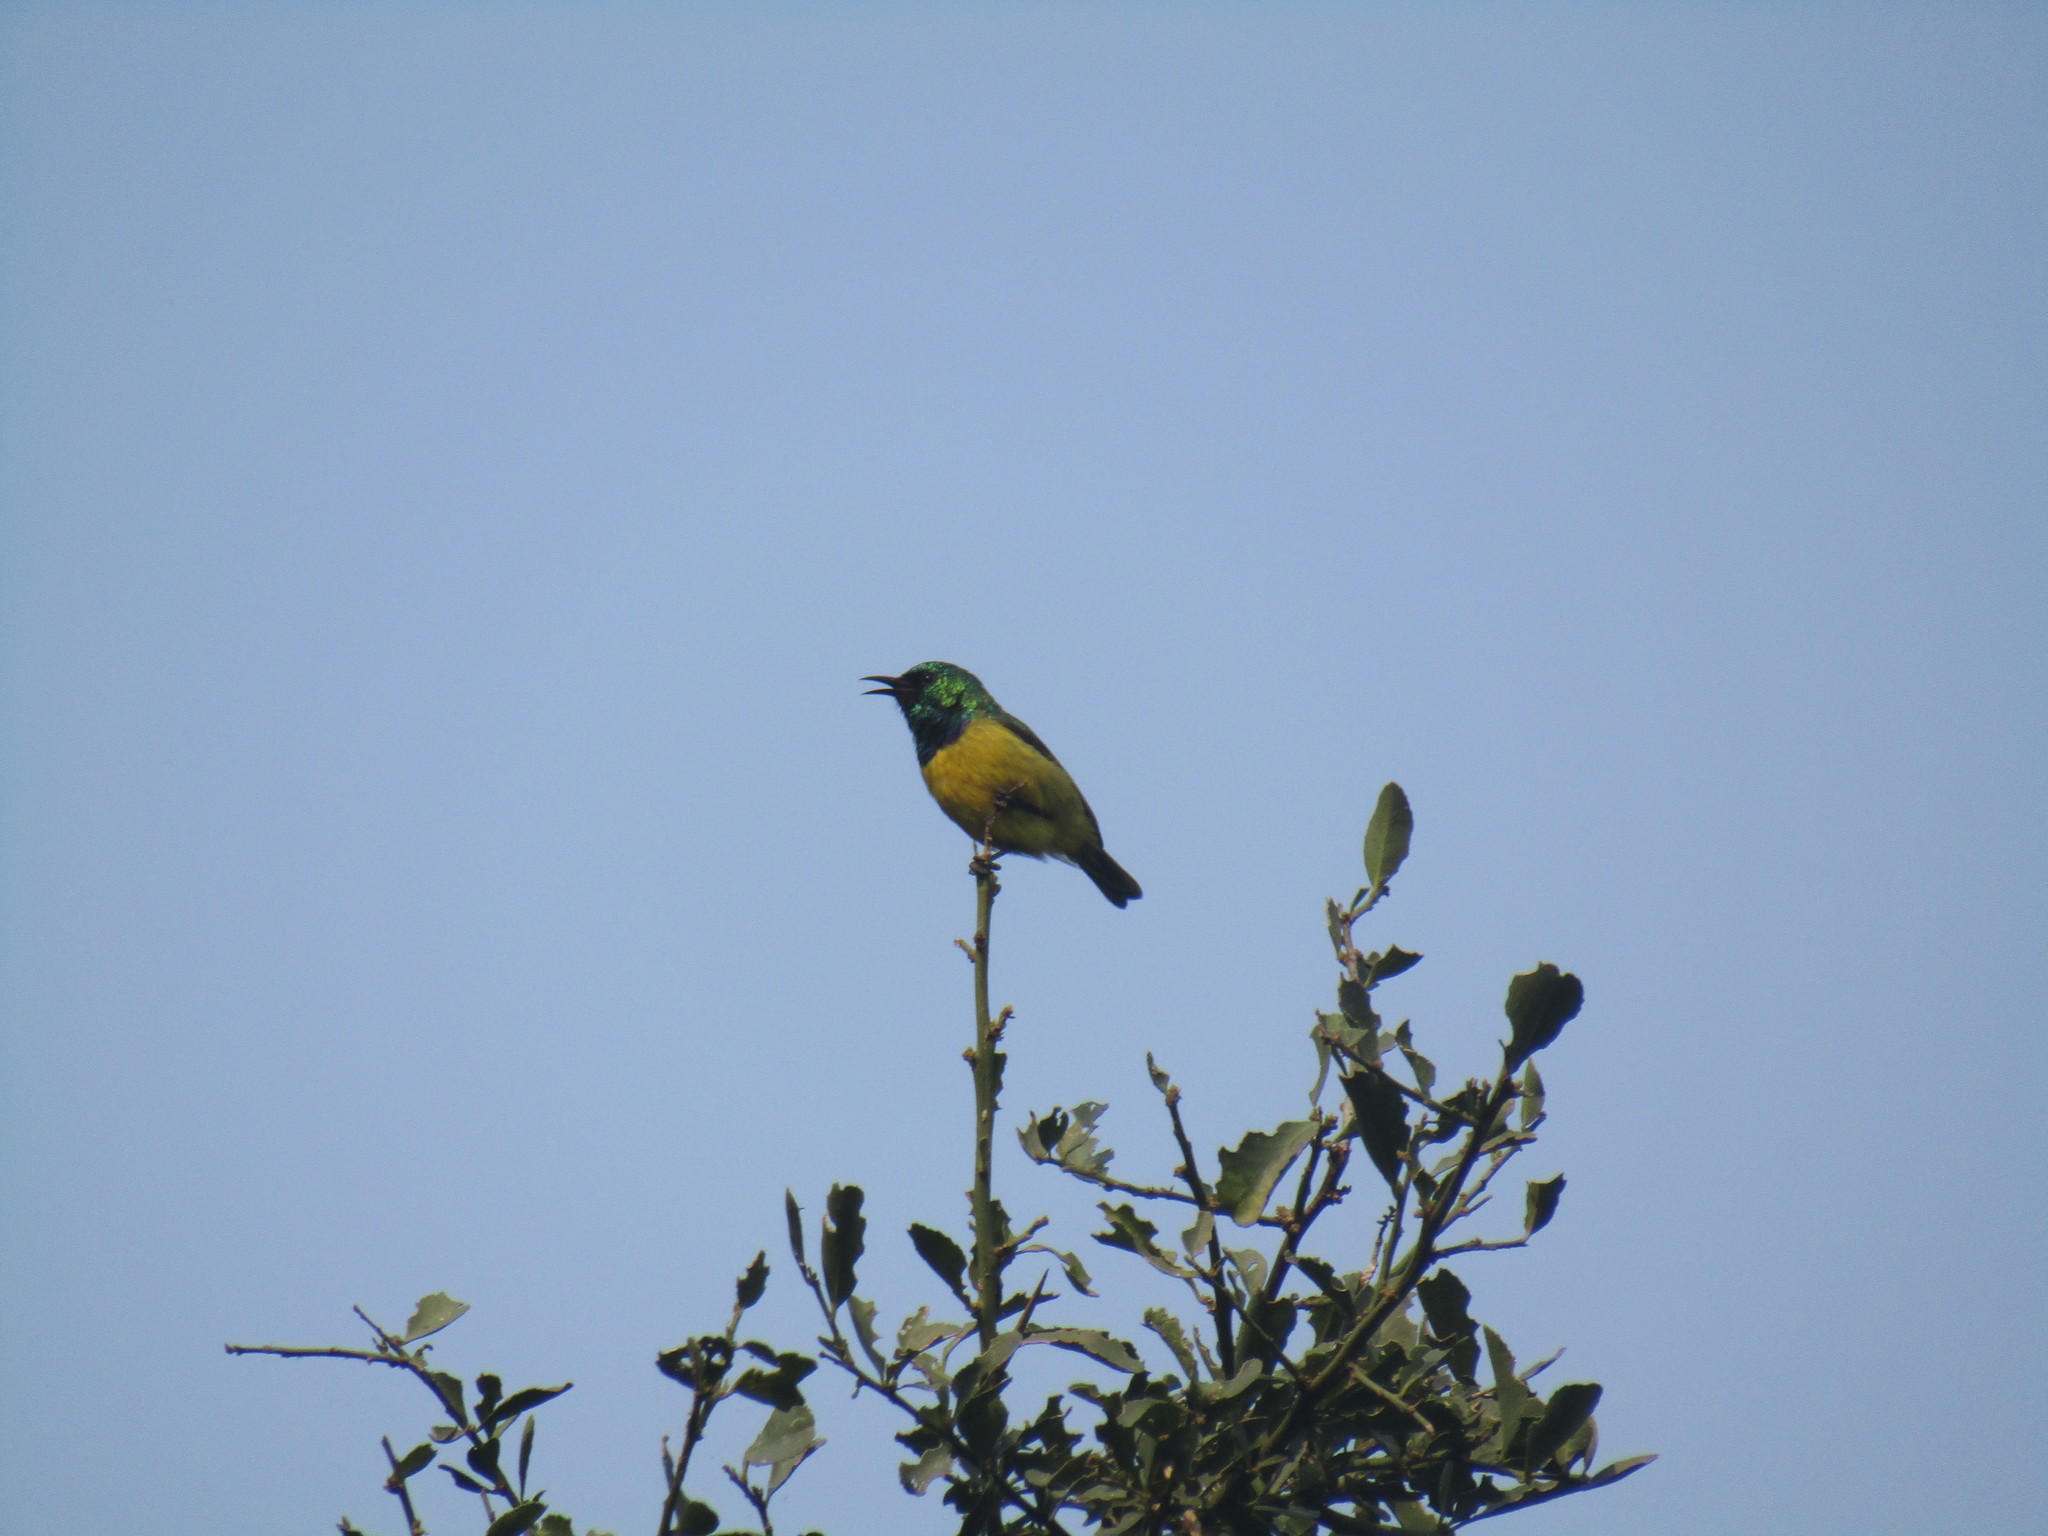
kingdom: Animalia
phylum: Chordata
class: Aves
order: Passeriformes
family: Nectariniidae
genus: Hedydipna
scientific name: Hedydipna collaris
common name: Collared sunbird
